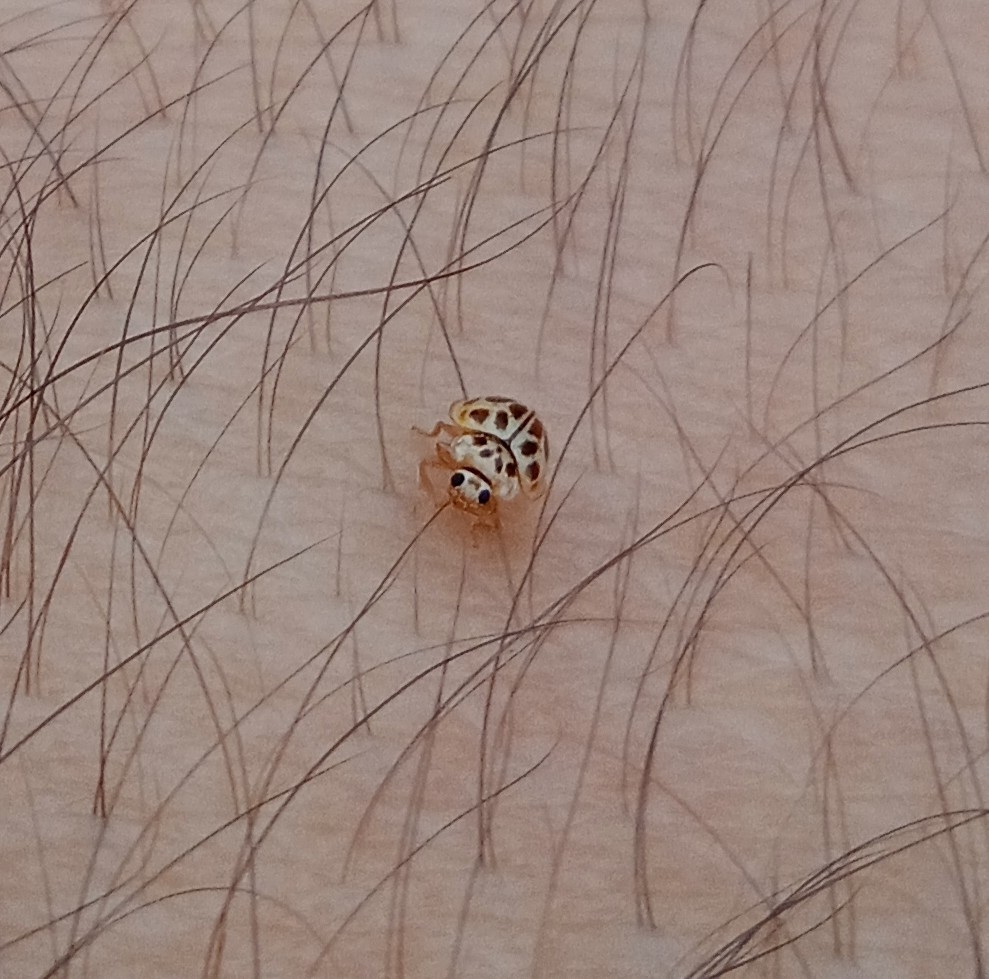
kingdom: Animalia
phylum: Arthropoda
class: Insecta
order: Coleoptera
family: Coccinellidae
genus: Psyllobora
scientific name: Psyllobora
